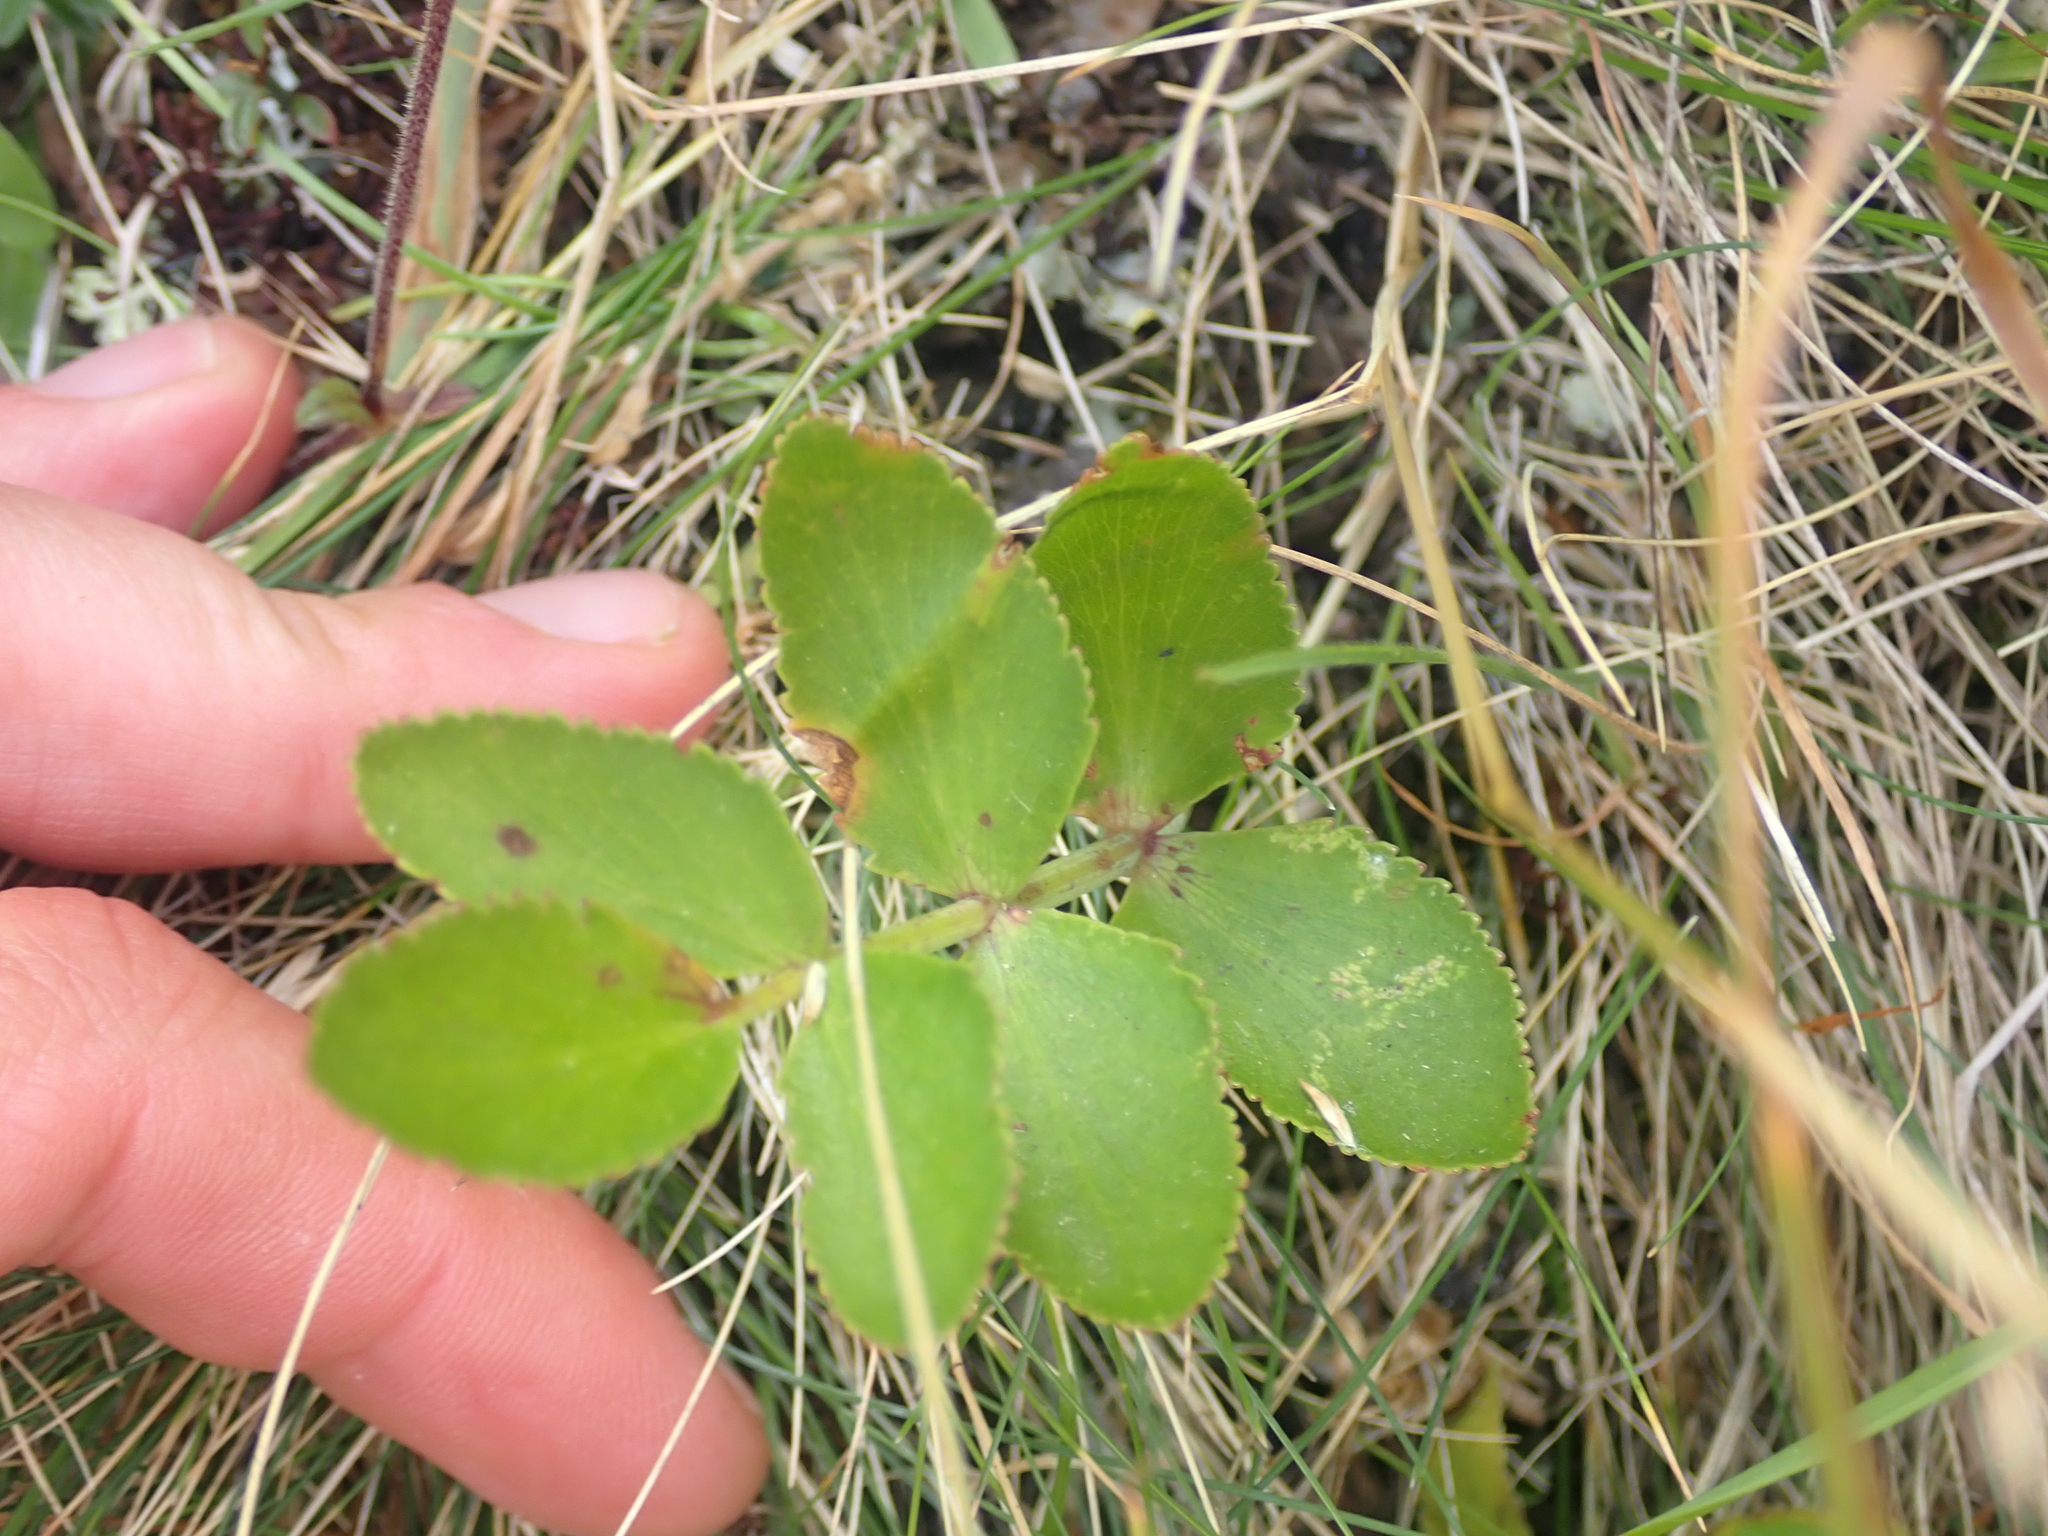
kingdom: Plantae
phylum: Tracheophyta
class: Magnoliopsida
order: Apiales
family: Apiaceae
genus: Gingidia
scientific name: Gingidia montana
